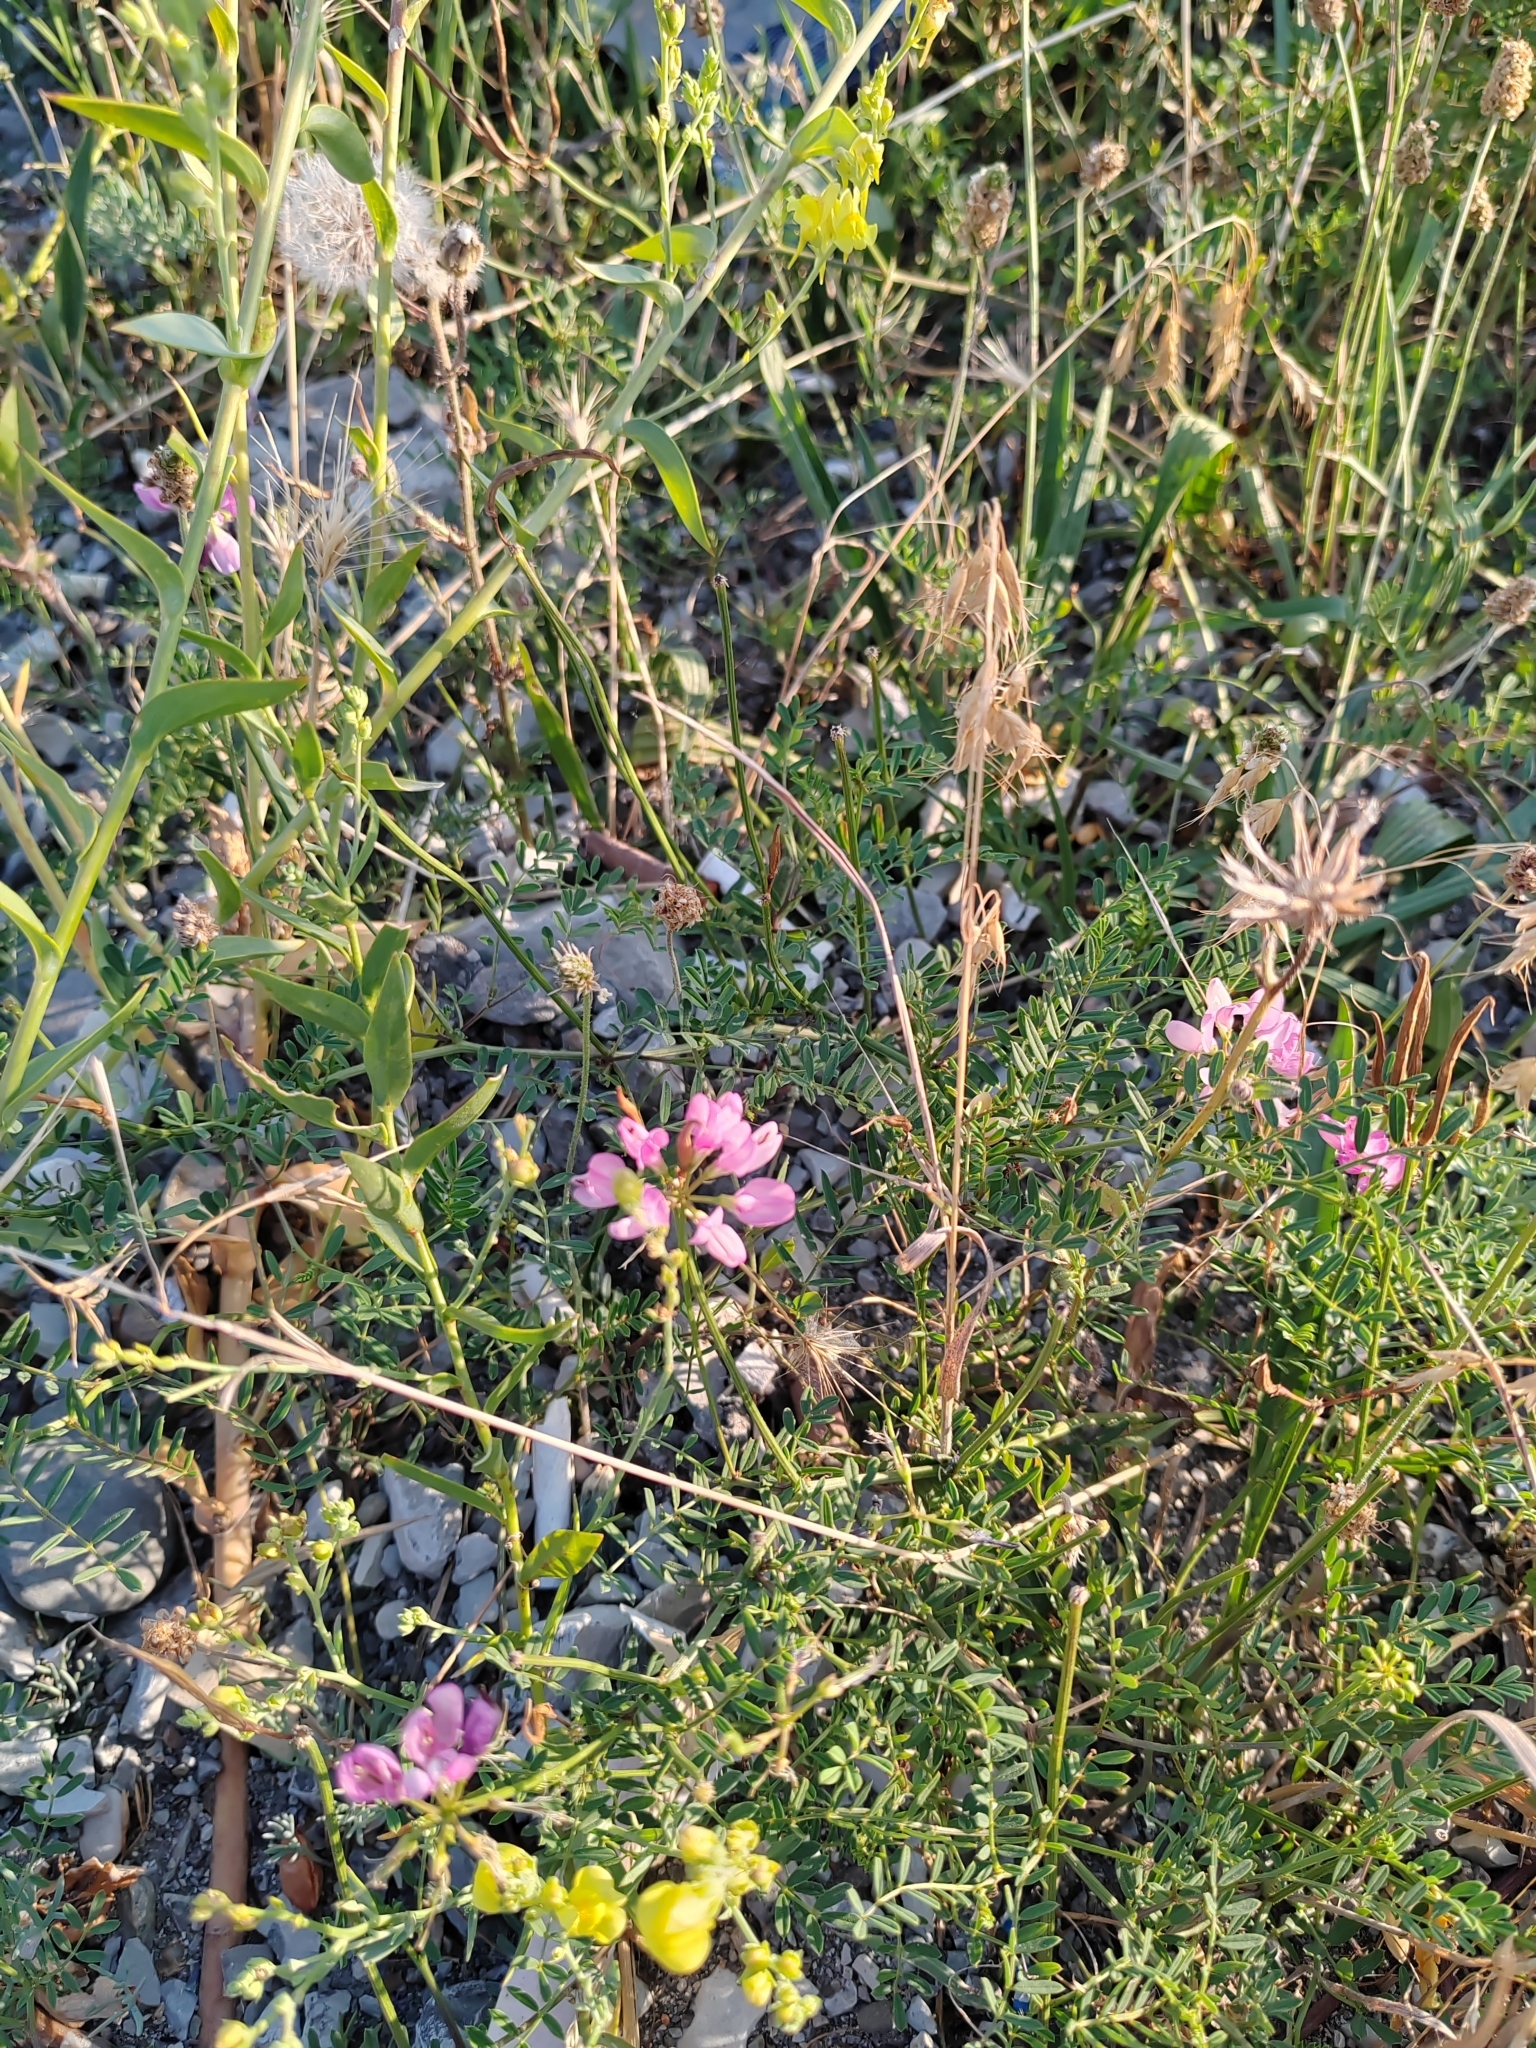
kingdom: Plantae
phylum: Tracheophyta
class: Magnoliopsida
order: Fabales
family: Fabaceae
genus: Coronilla
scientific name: Coronilla varia
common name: Crownvetch
